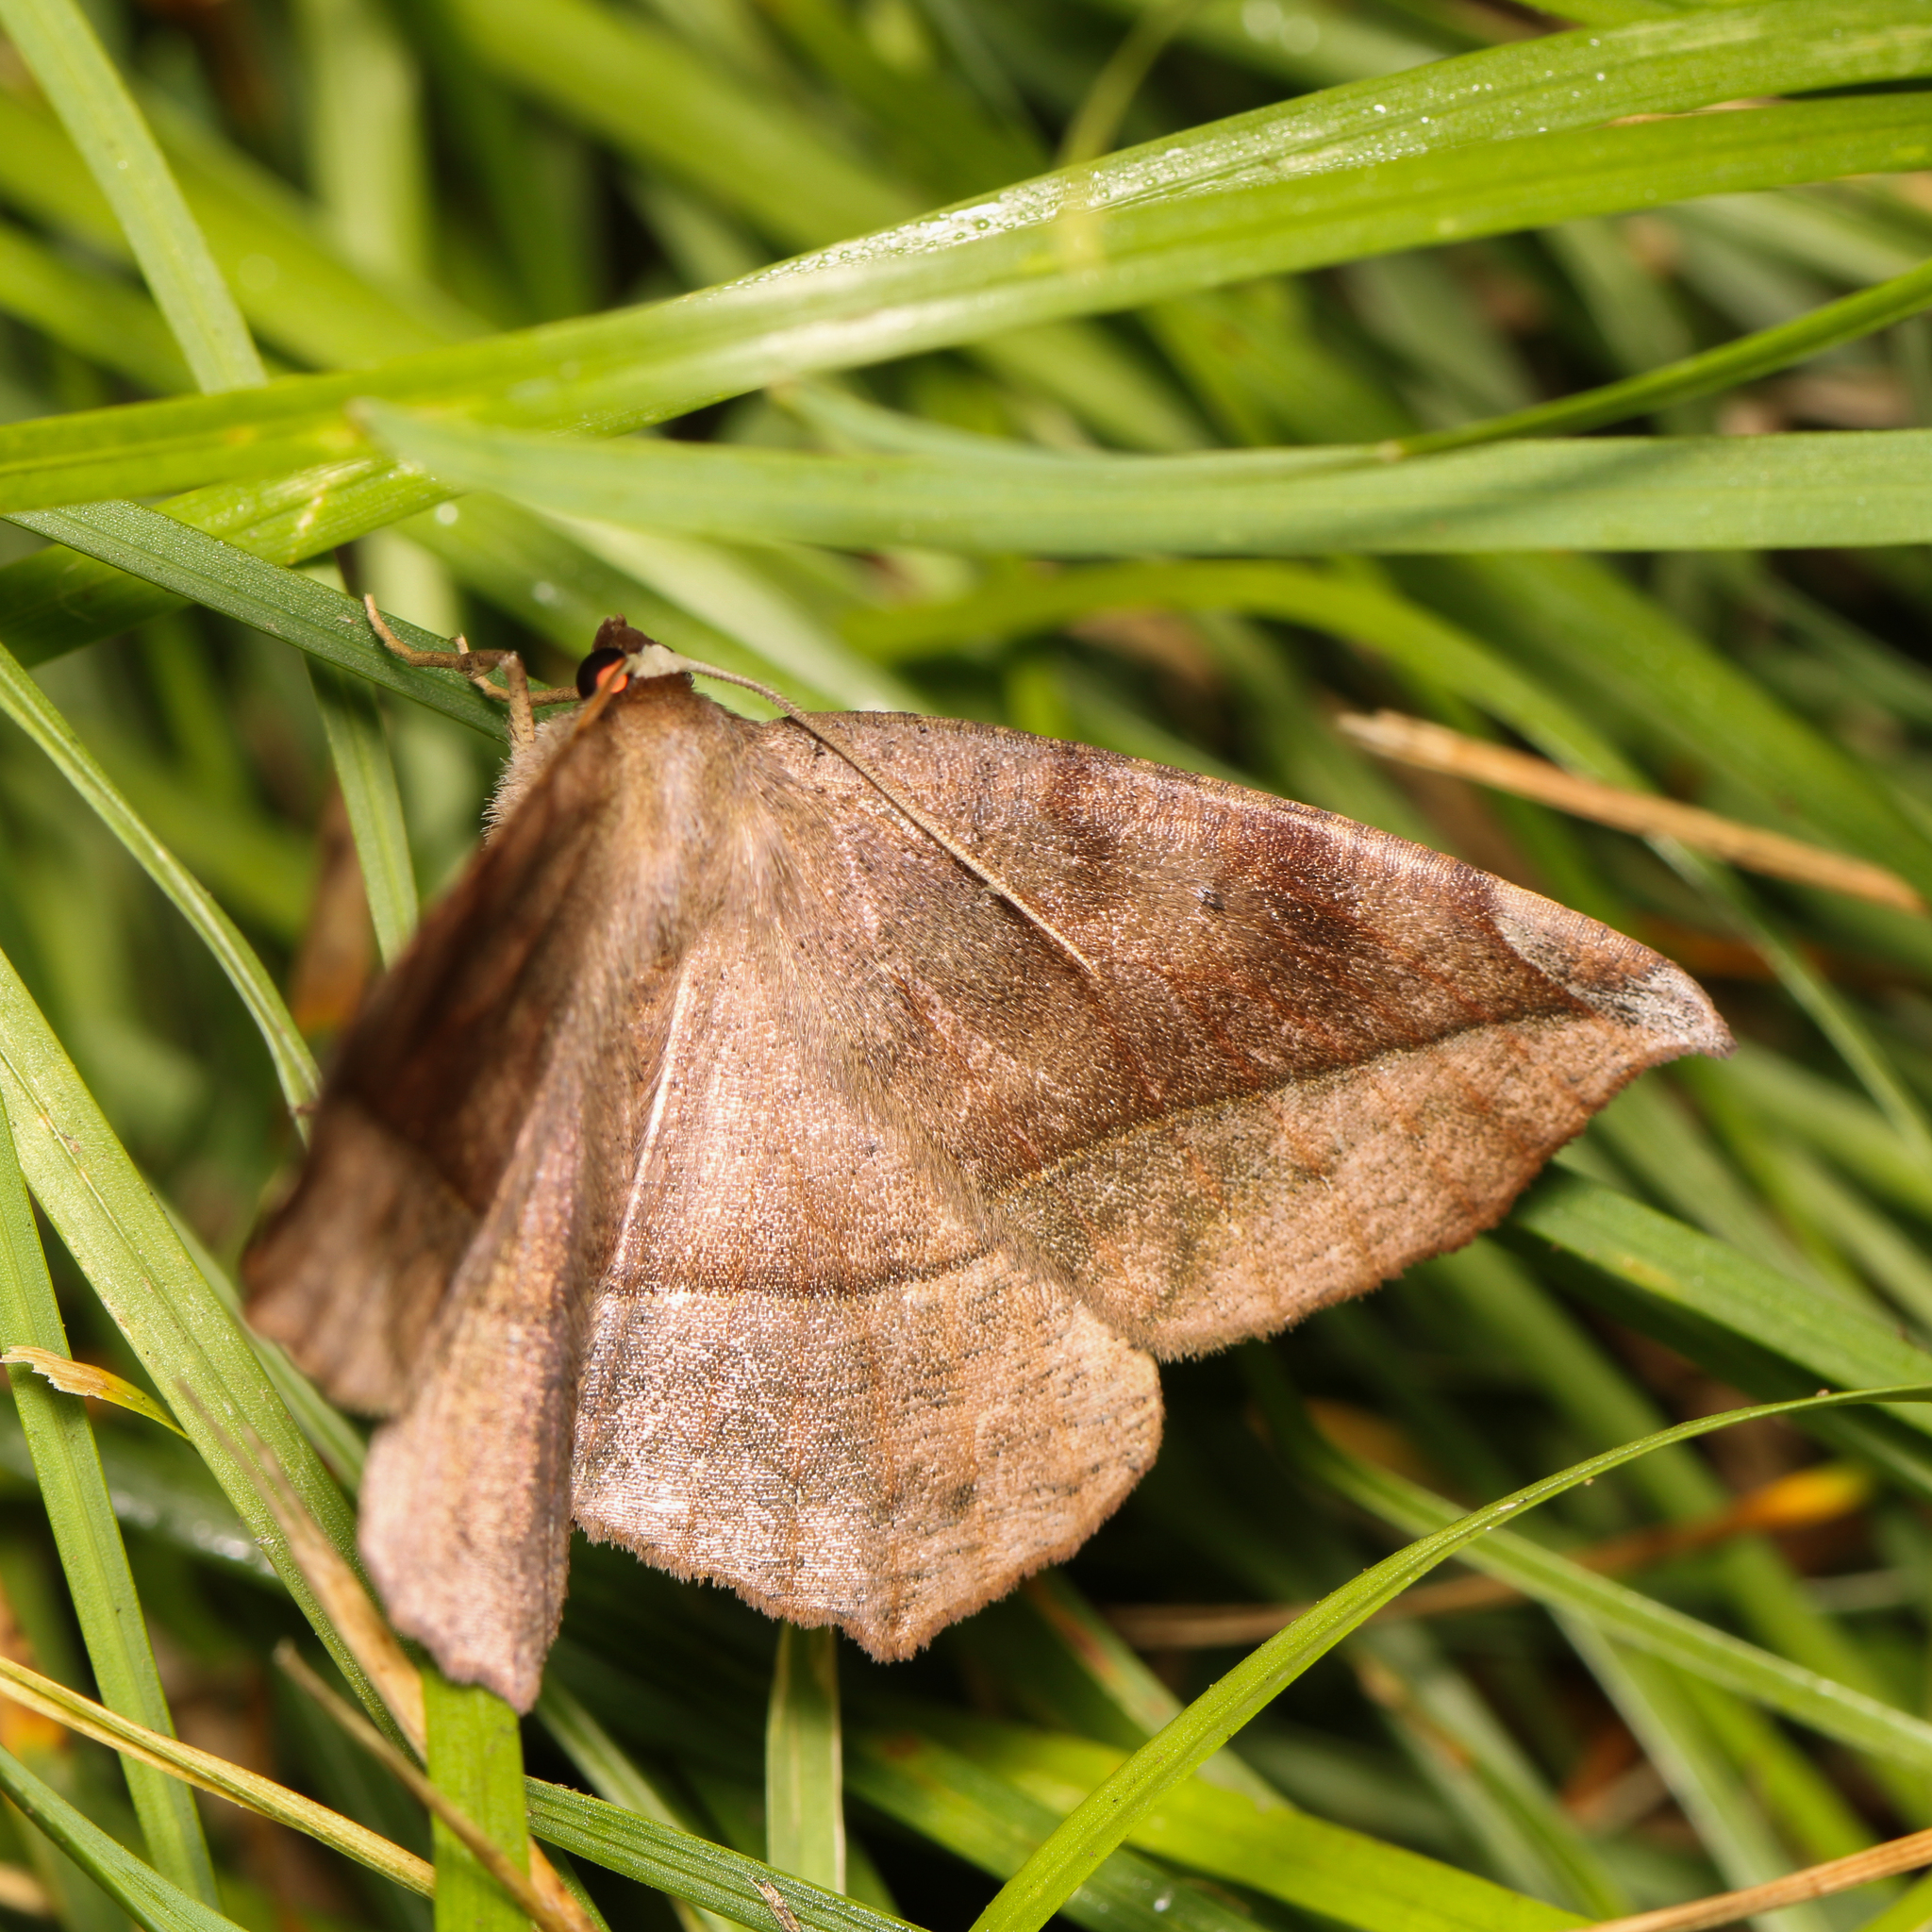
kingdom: Animalia
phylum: Arthropoda
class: Insecta
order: Lepidoptera
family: Geometridae
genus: Eutrapela
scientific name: Eutrapela clemataria
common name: Curved-toothed geometer
